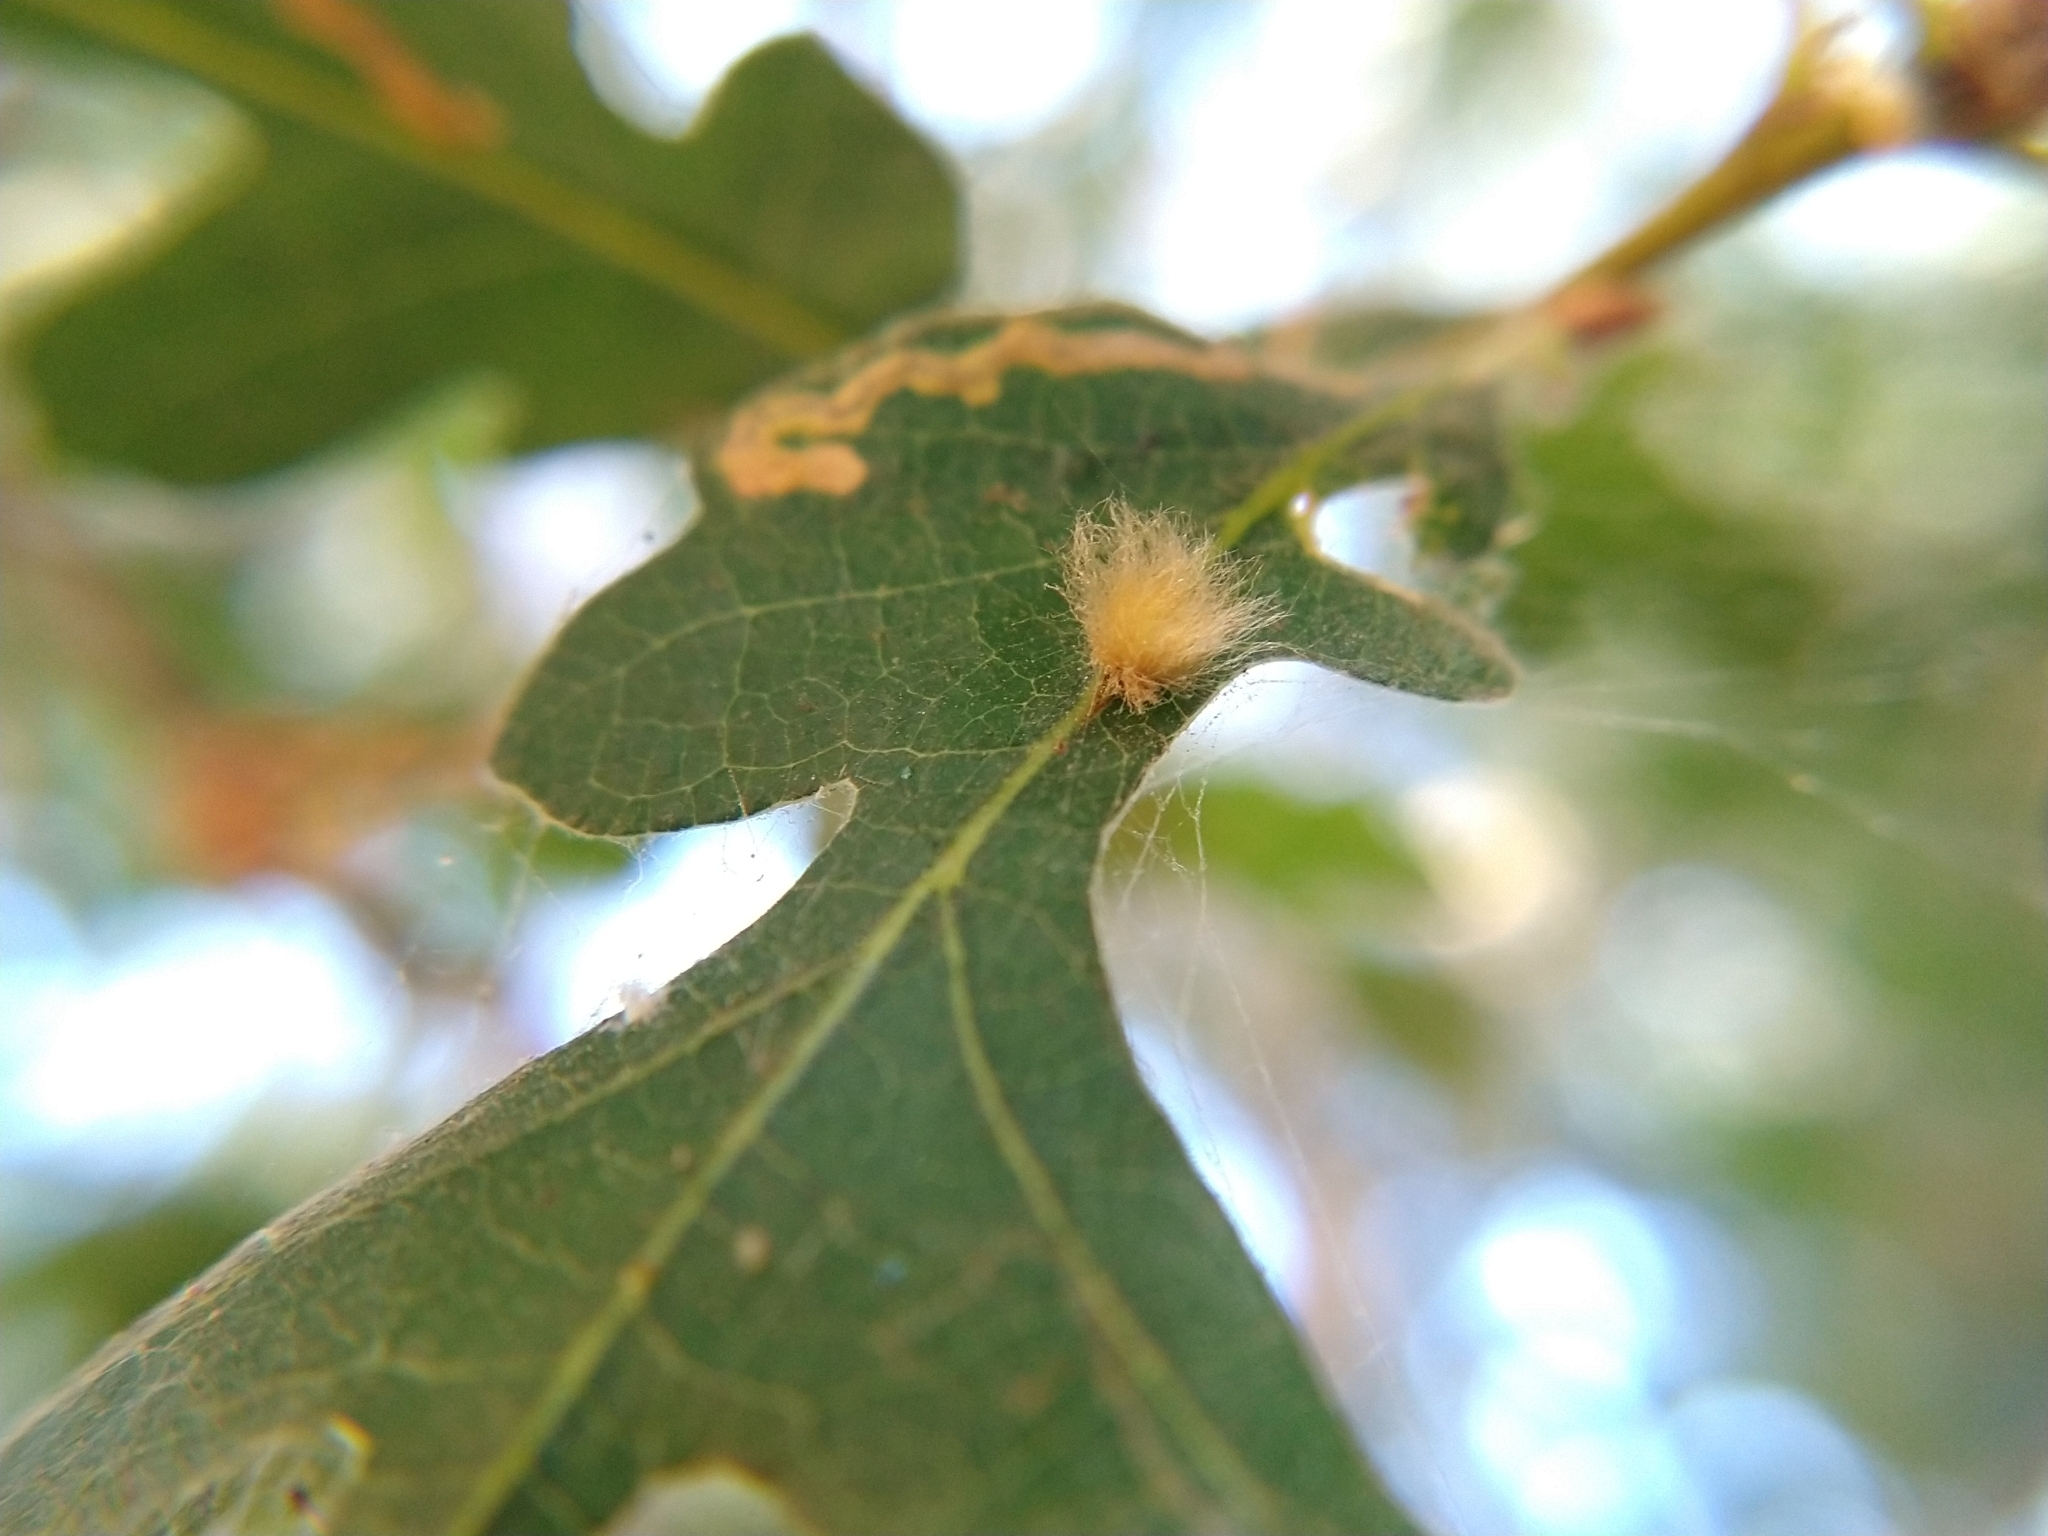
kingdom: Animalia
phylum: Arthropoda
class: Insecta
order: Hymenoptera
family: Cynipidae
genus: Andricus
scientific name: Andricus Druon fullawayi
